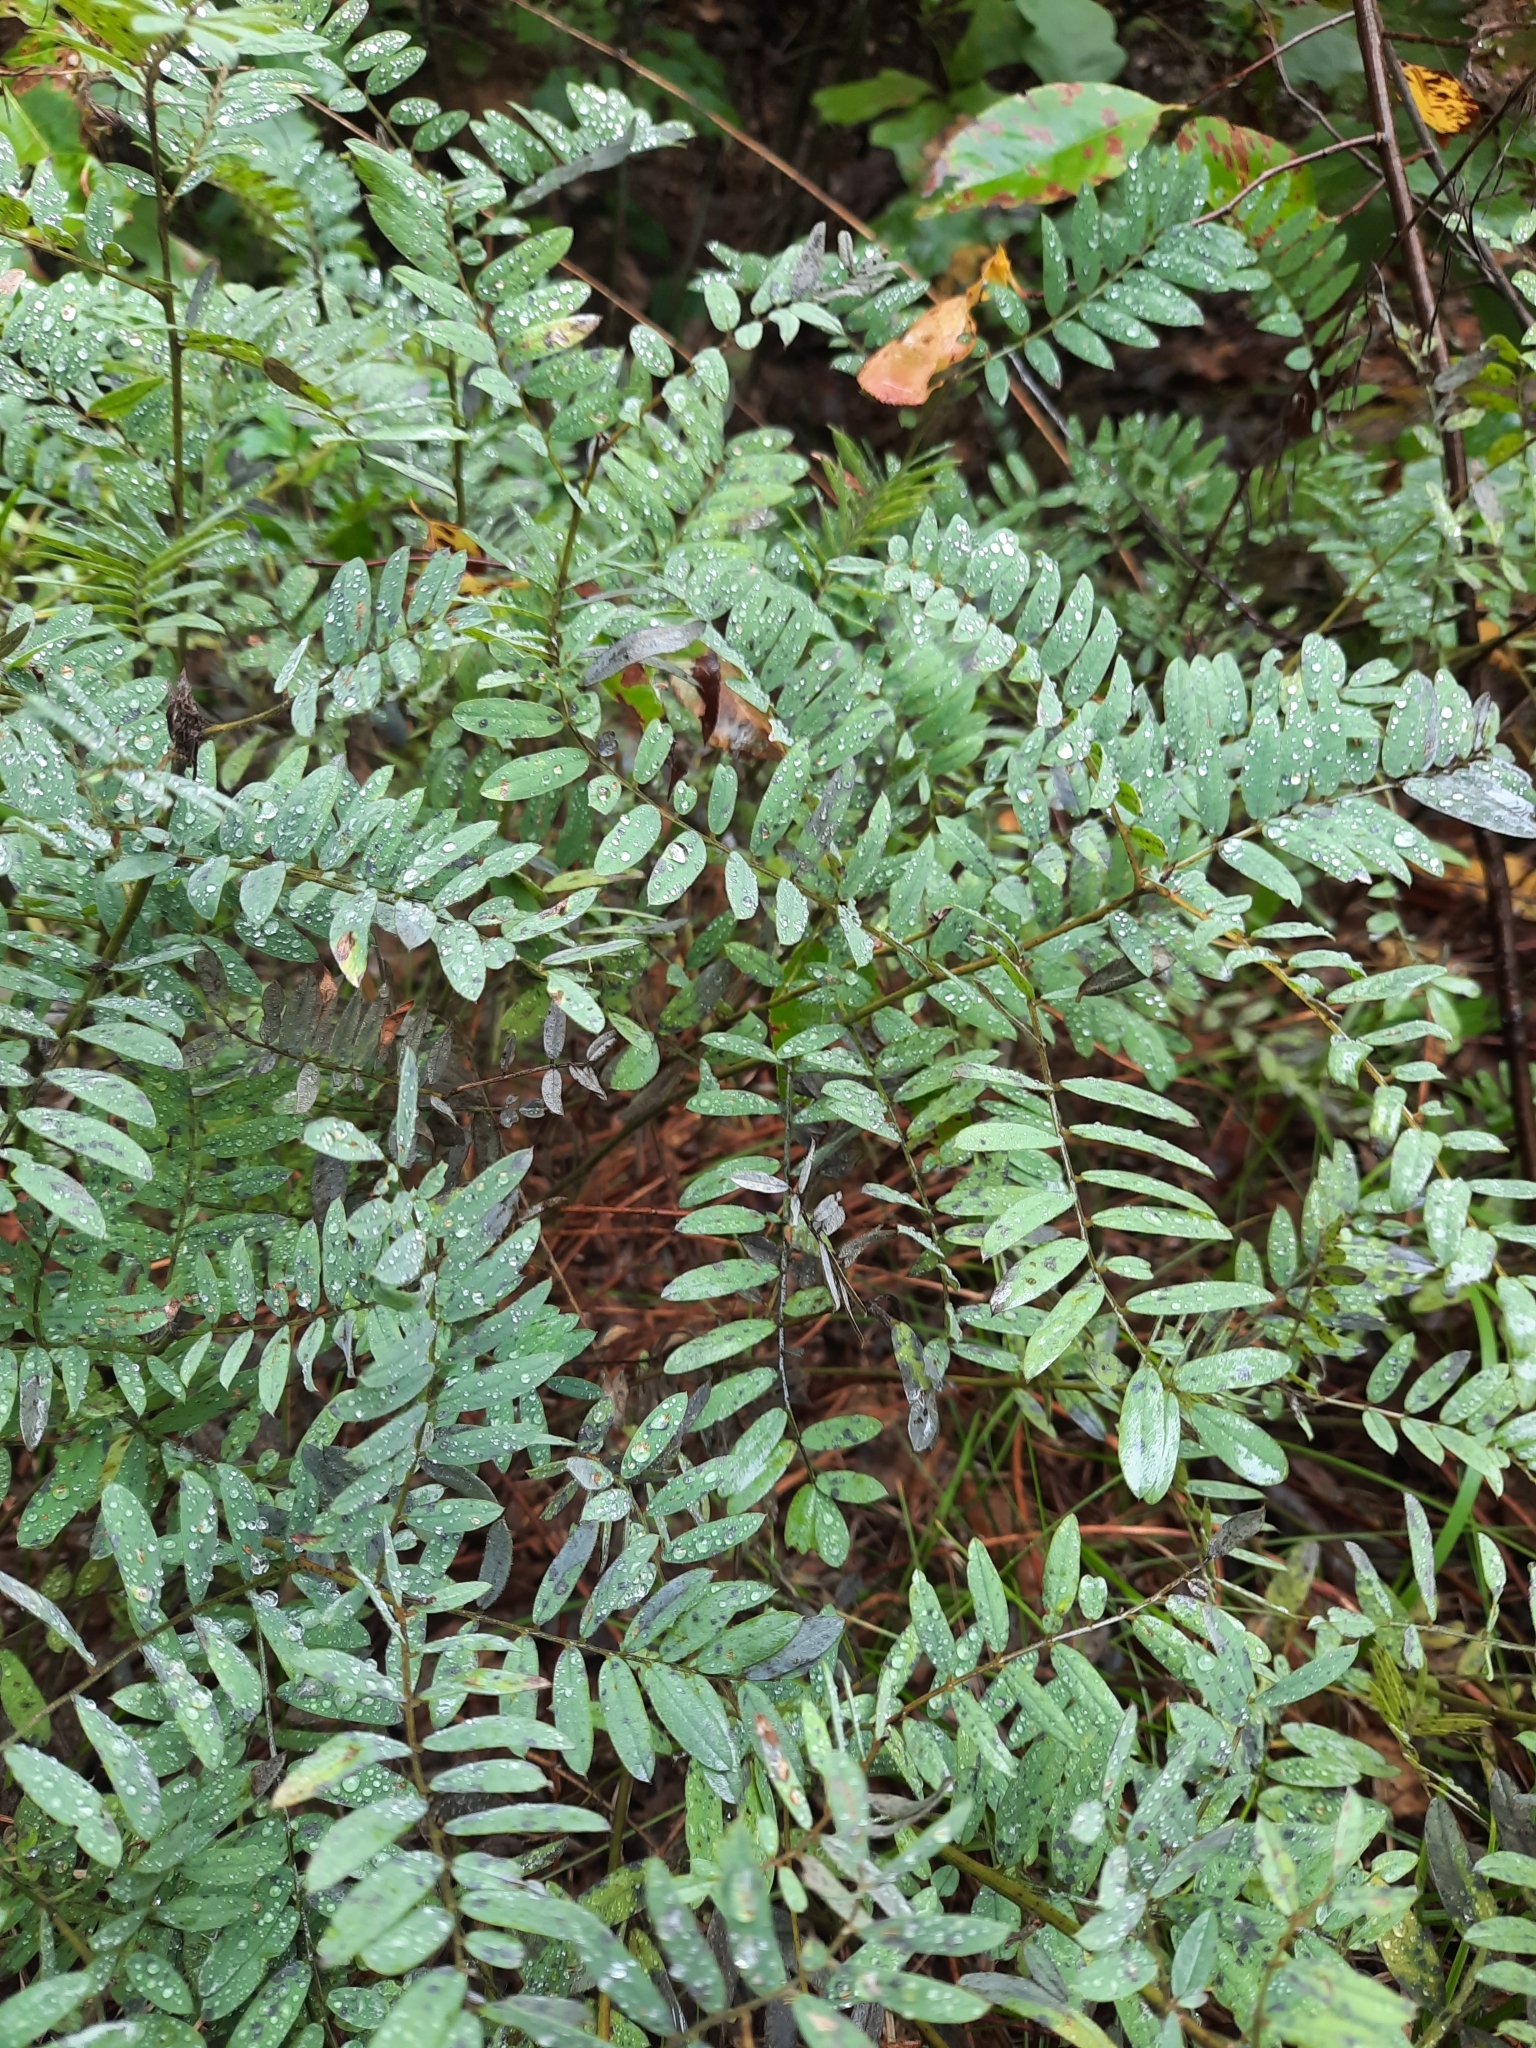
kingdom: Plantae
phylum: Tracheophyta
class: Magnoliopsida
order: Fabales
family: Fabaceae
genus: Tephrosia
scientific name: Tephrosia virginiana
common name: Rabbit-pea
